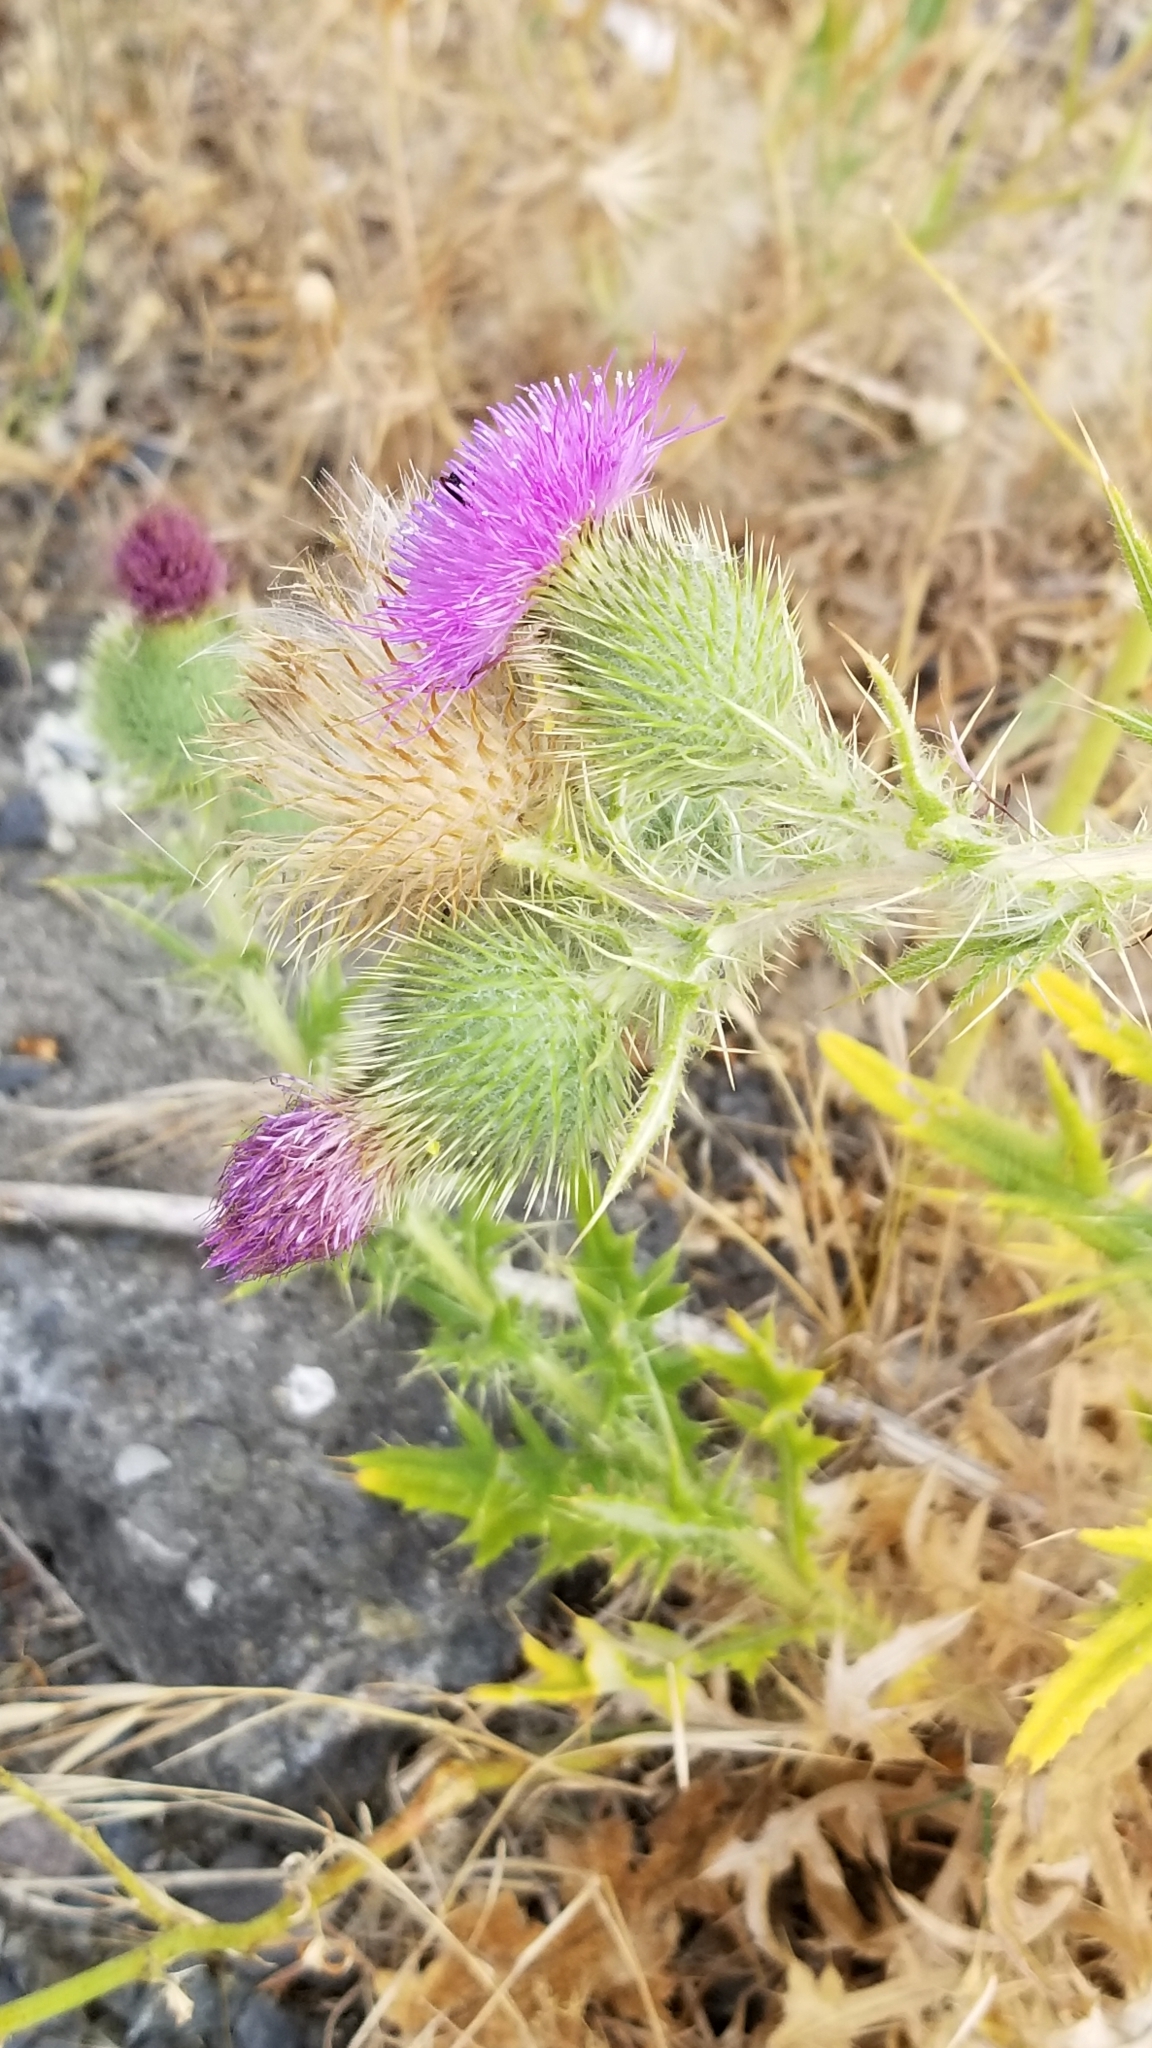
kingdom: Plantae
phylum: Tracheophyta
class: Magnoliopsida
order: Asterales
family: Asteraceae
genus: Cirsium
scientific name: Cirsium vulgare
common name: Bull thistle
